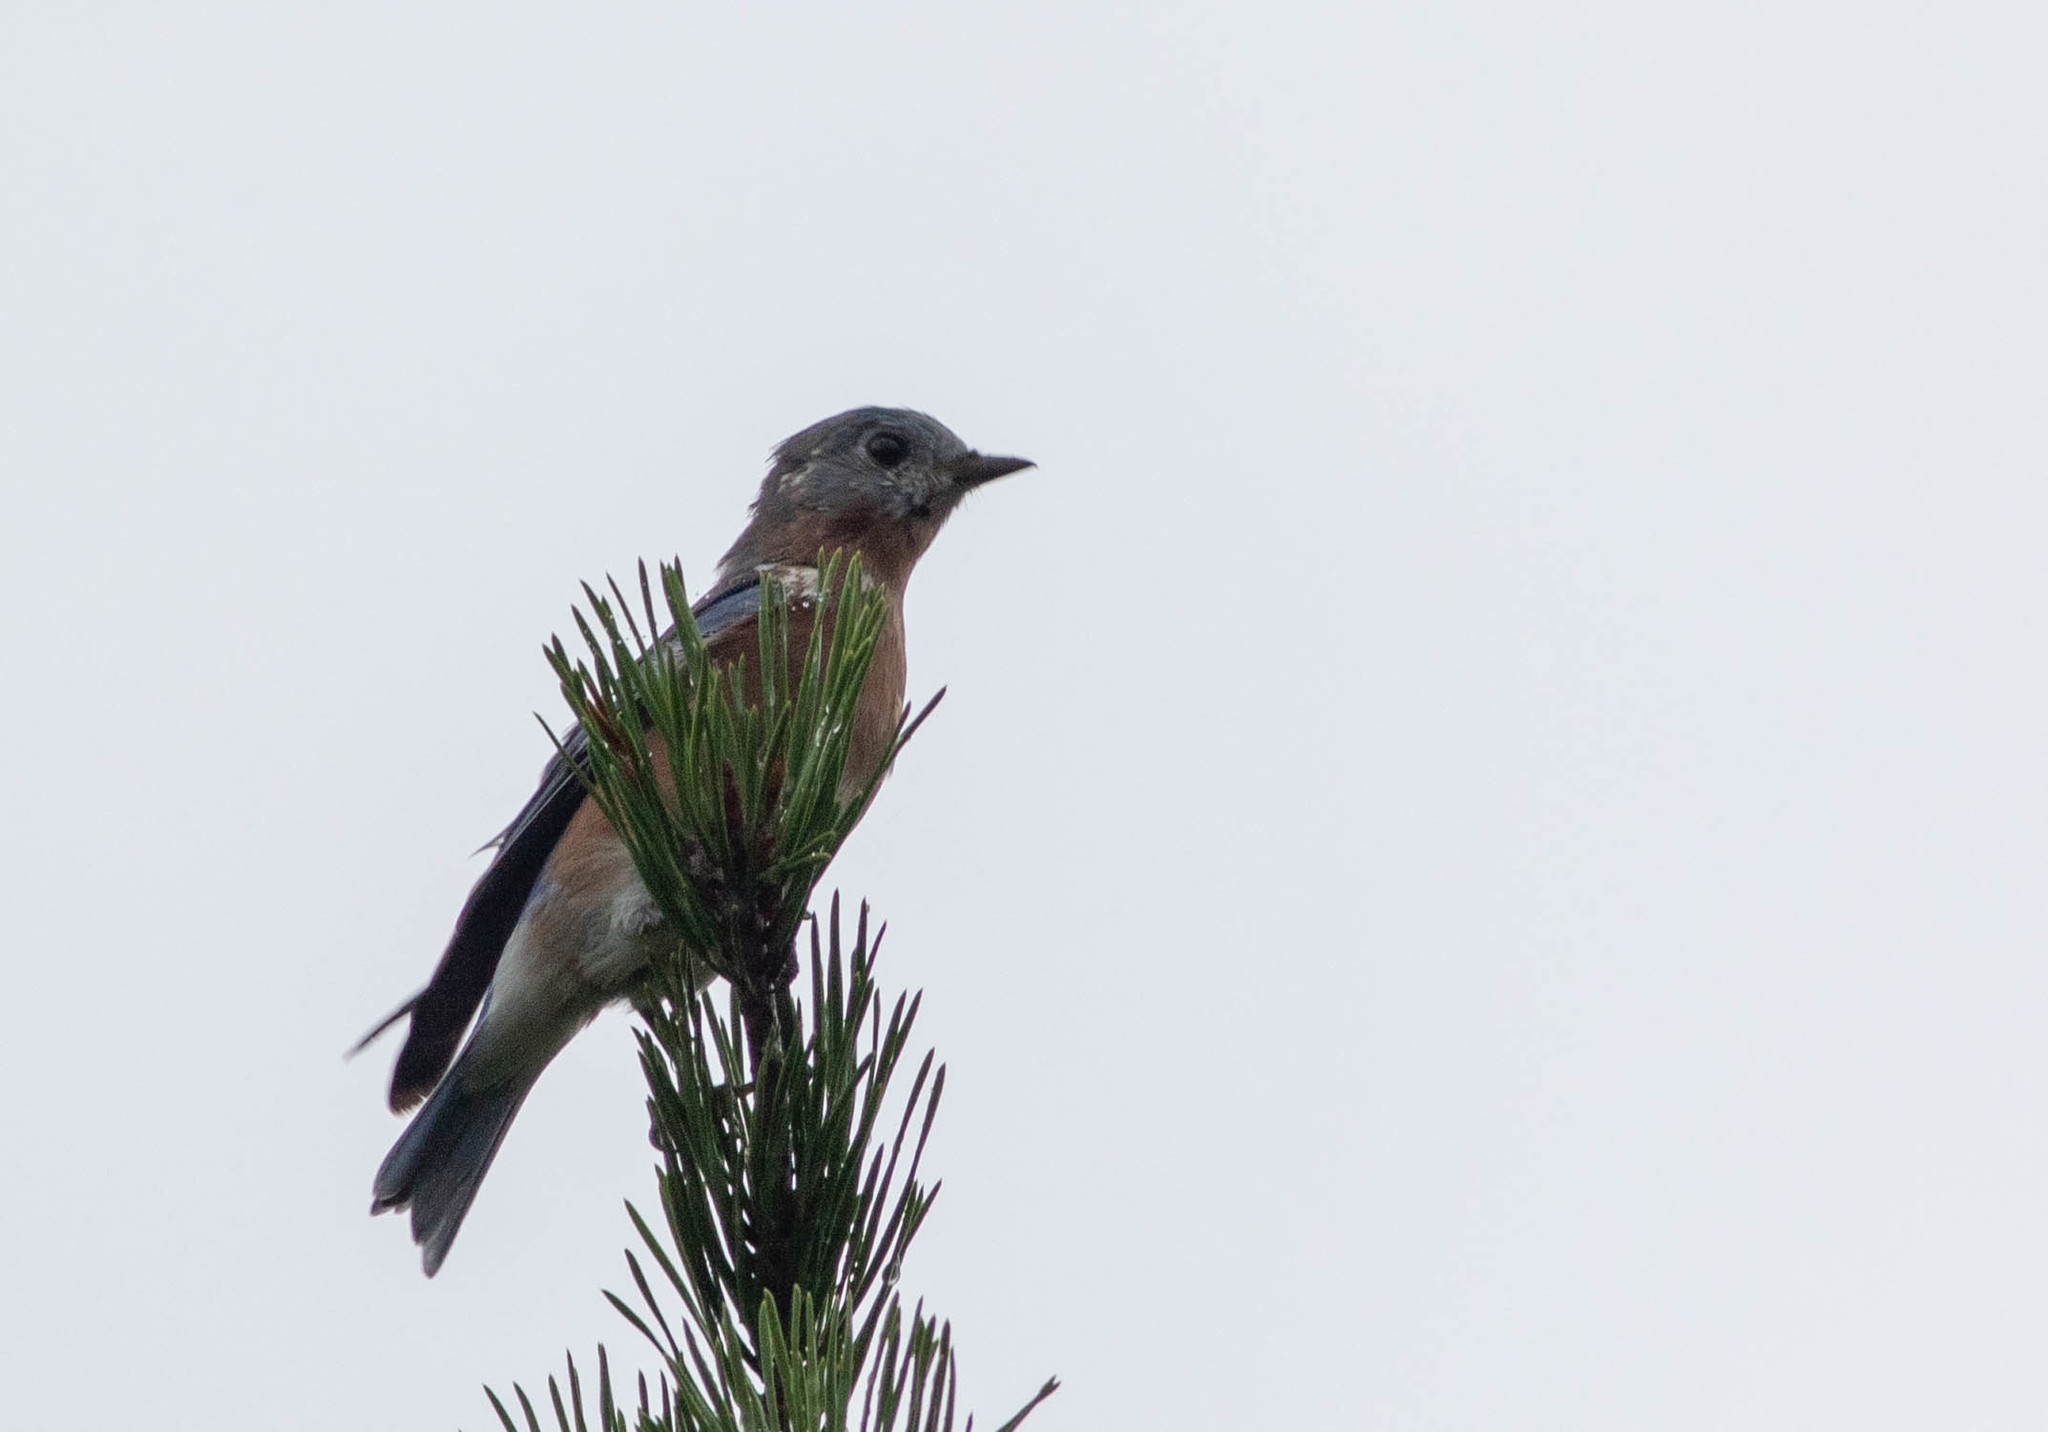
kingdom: Animalia
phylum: Chordata
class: Aves
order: Passeriformes
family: Turdidae
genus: Sialia
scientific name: Sialia sialis
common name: Eastern bluebird
